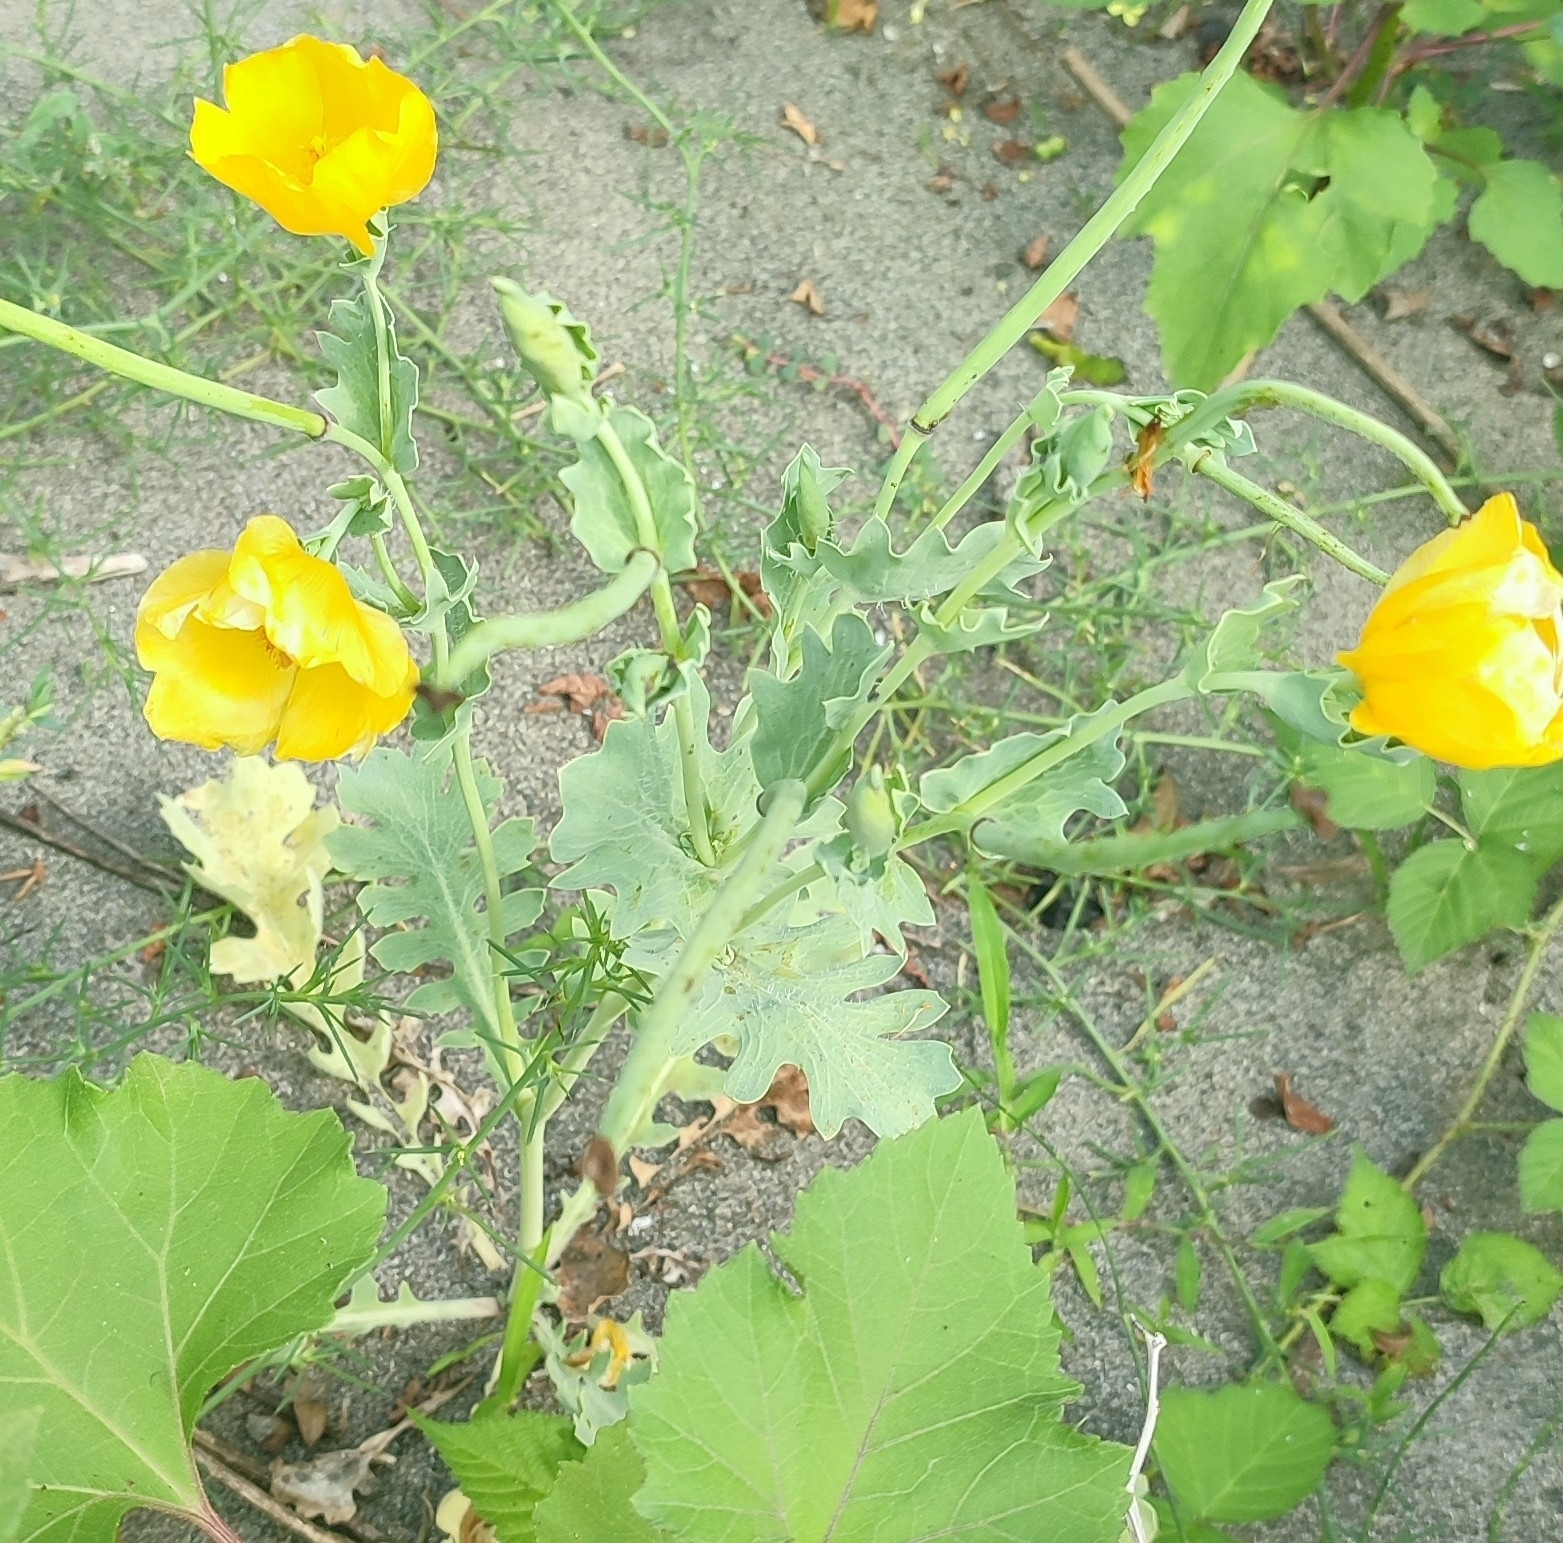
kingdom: Plantae
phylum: Tracheophyta
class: Magnoliopsida
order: Ranunculales
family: Papaveraceae
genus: Glaucium
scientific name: Glaucium flavum
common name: Yellow horned-poppy
